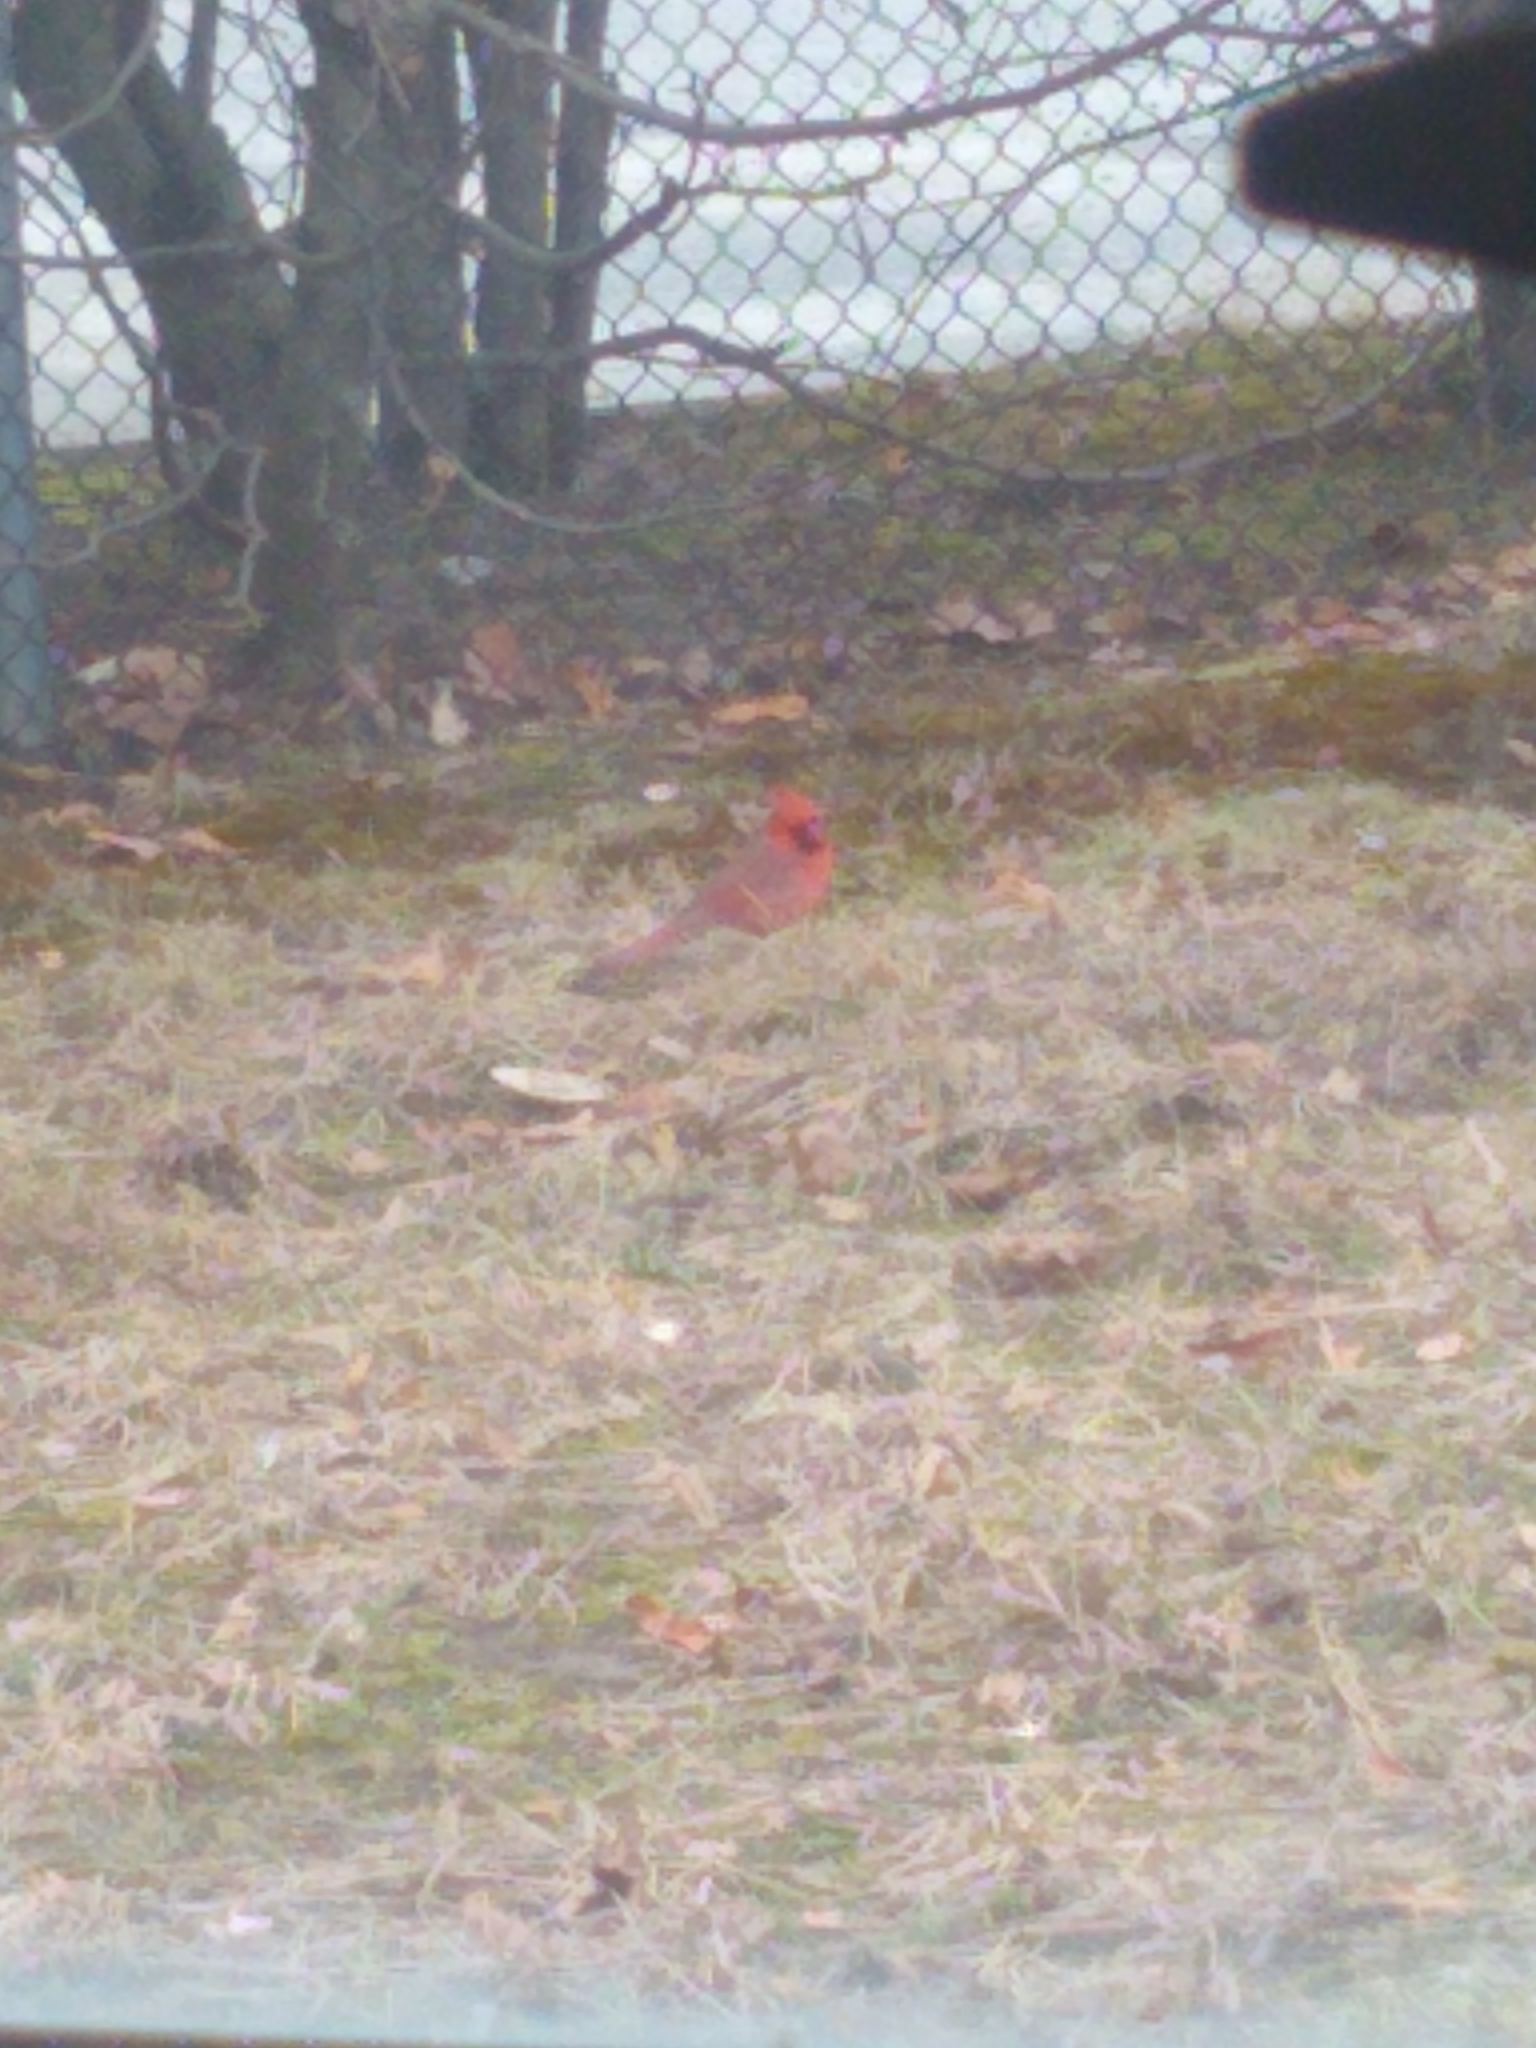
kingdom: Animalia
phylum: Chordata
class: Aves
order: Passeriformes
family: Cardinalidae
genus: Cardinalis
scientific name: Cardinalis cardinalis
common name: Northern cardinal
